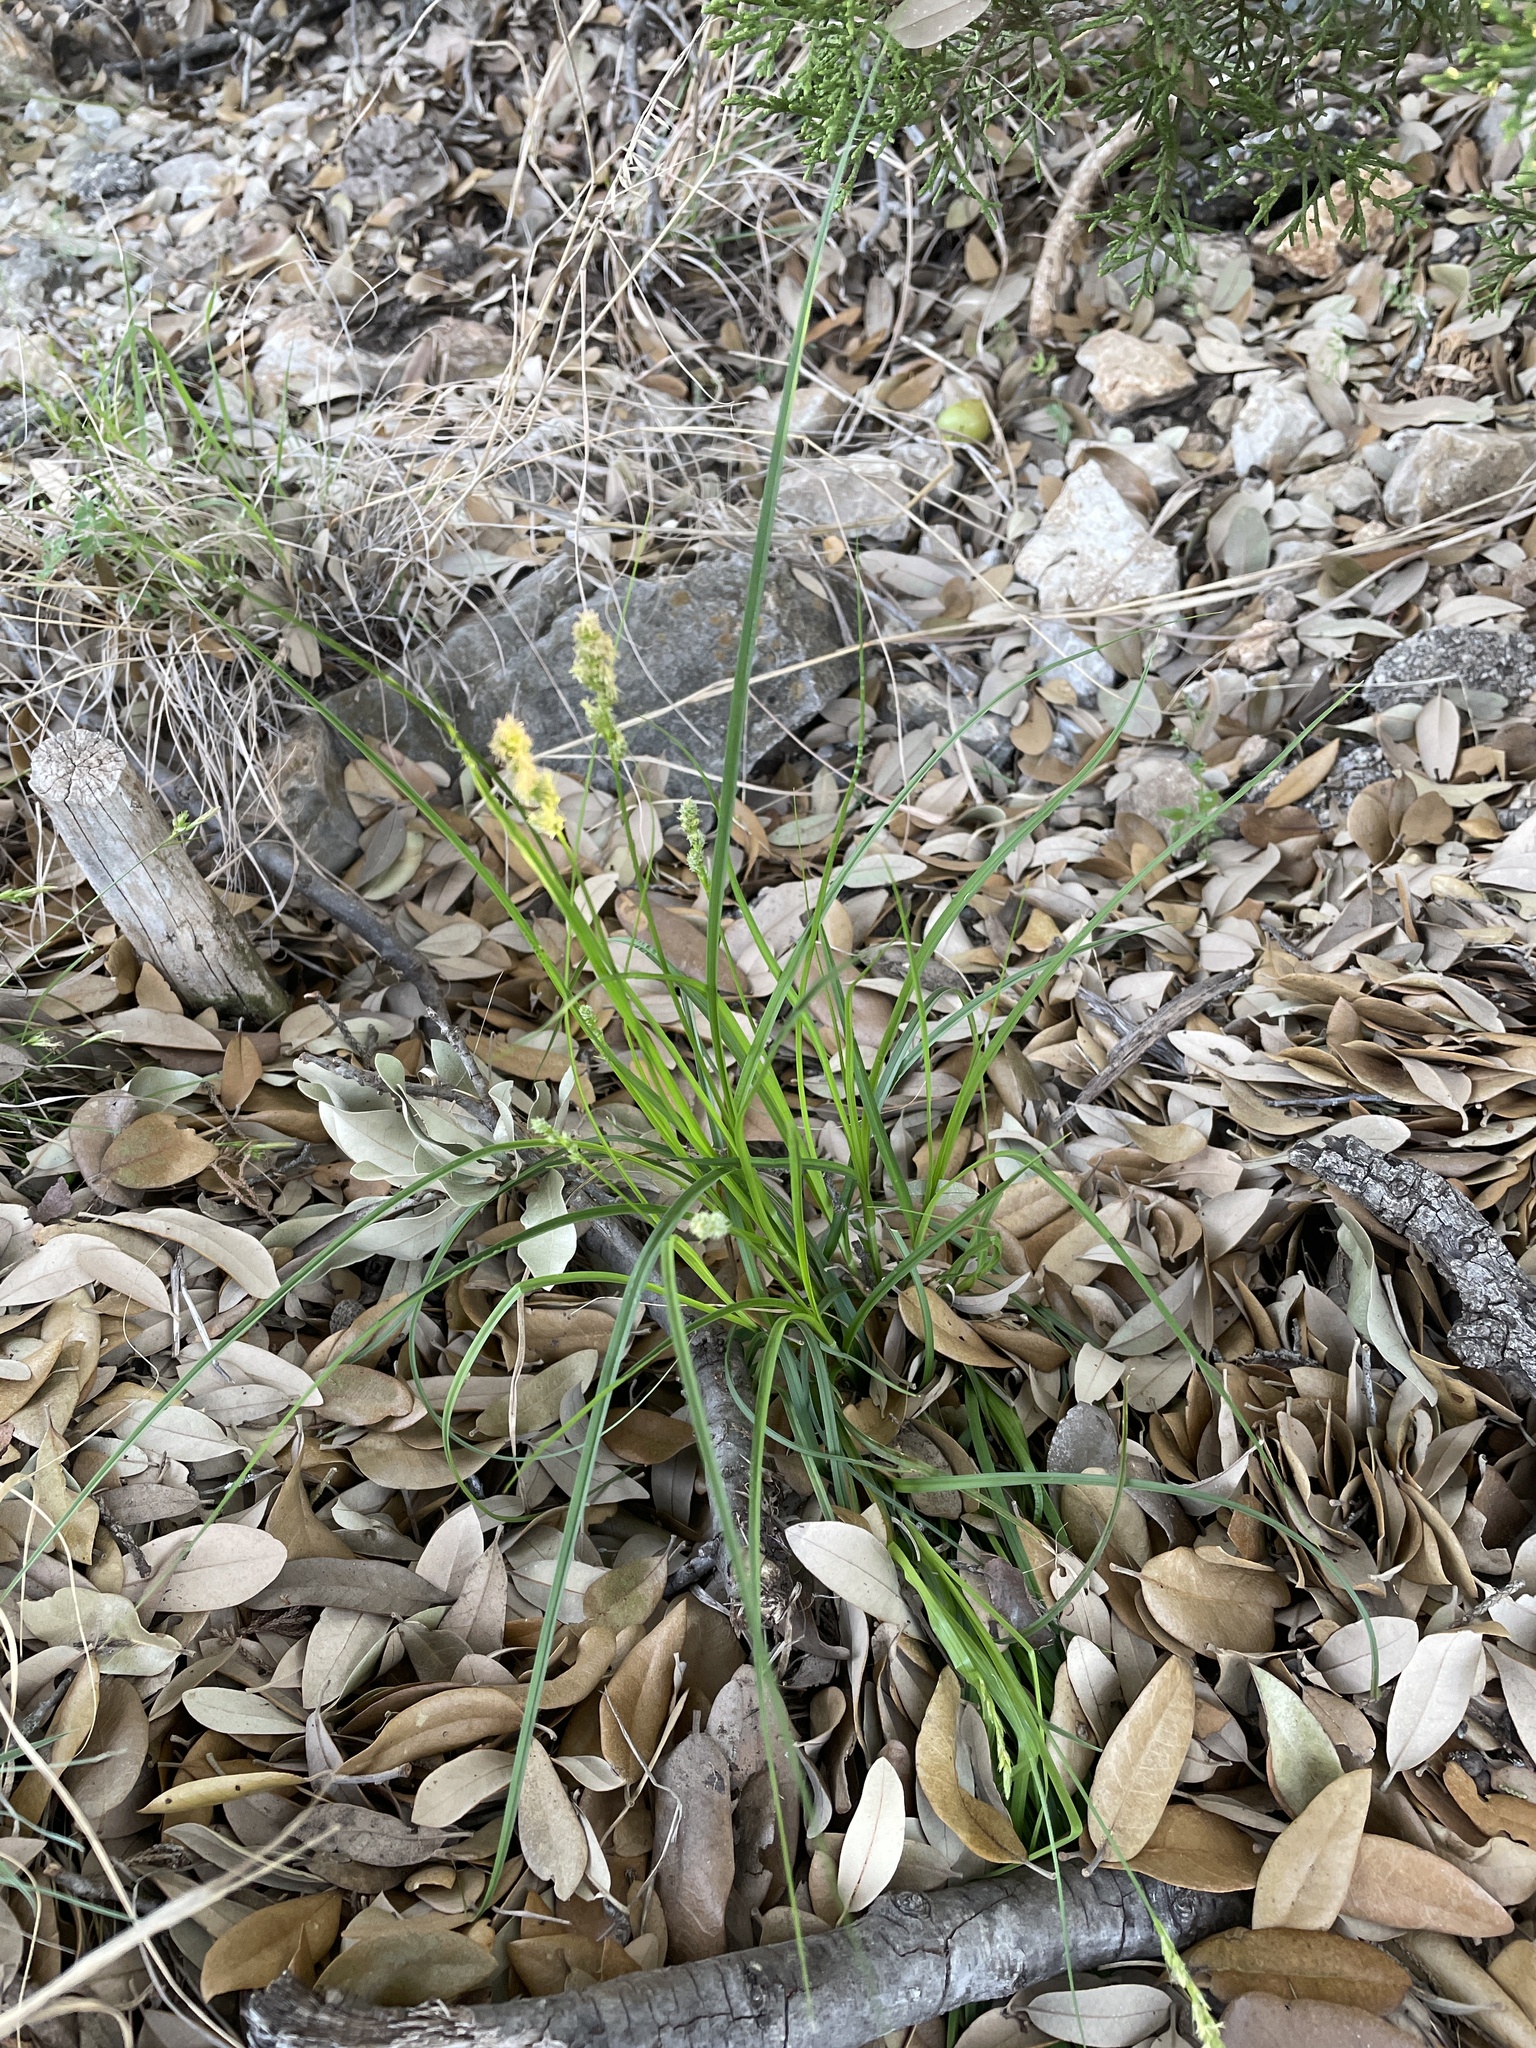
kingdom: Plantae
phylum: Tracheophyta
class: Liliopsida
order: Poales
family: Cyperaceae
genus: Carex
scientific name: Carex planostachys
